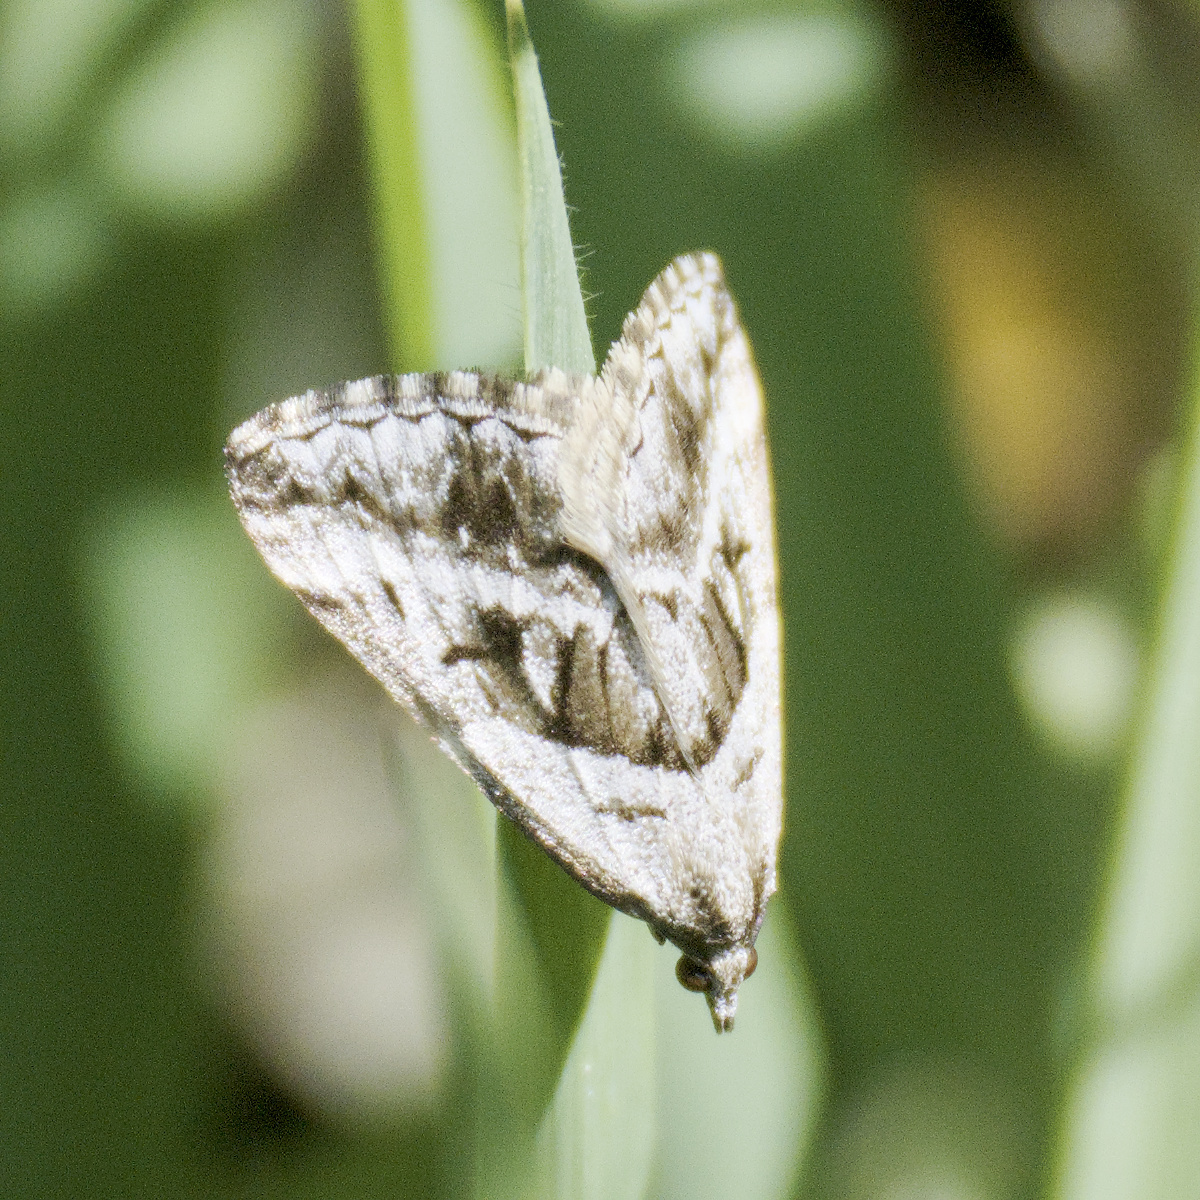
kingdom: Animalia
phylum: Arthropoda
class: Insecta
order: Lepidoptera
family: Geometridae
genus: Dichromodes
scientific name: Dichromodes stilbiata
